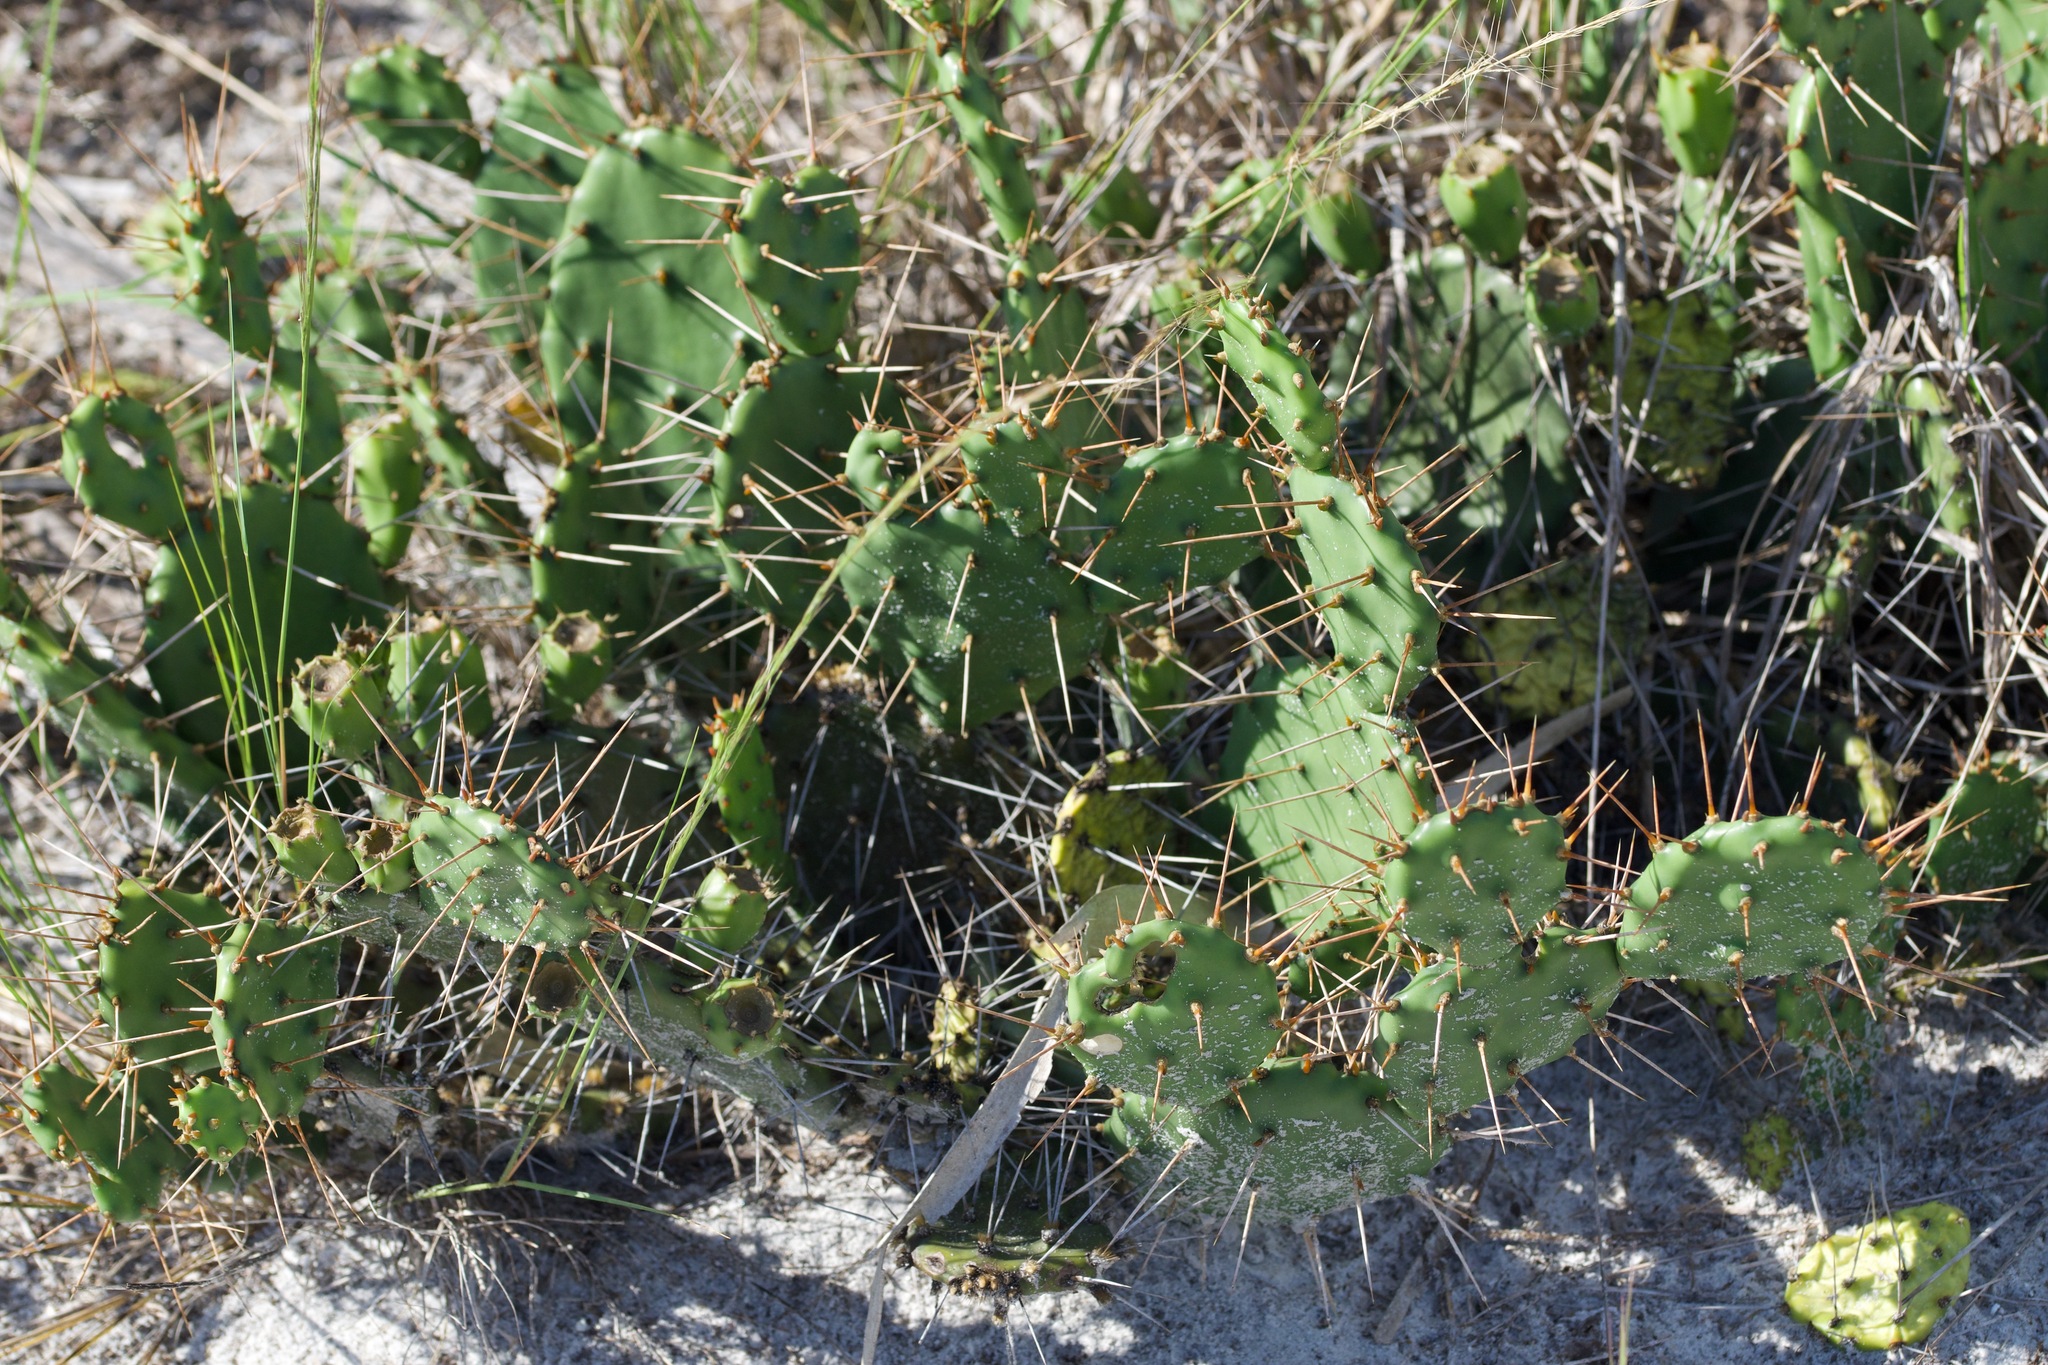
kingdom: Plantae
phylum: Tracheophyta
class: Magnoliopsida
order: Caryophyllales
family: Cactaceae
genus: Opuntia
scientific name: Opuntia mesacantha
